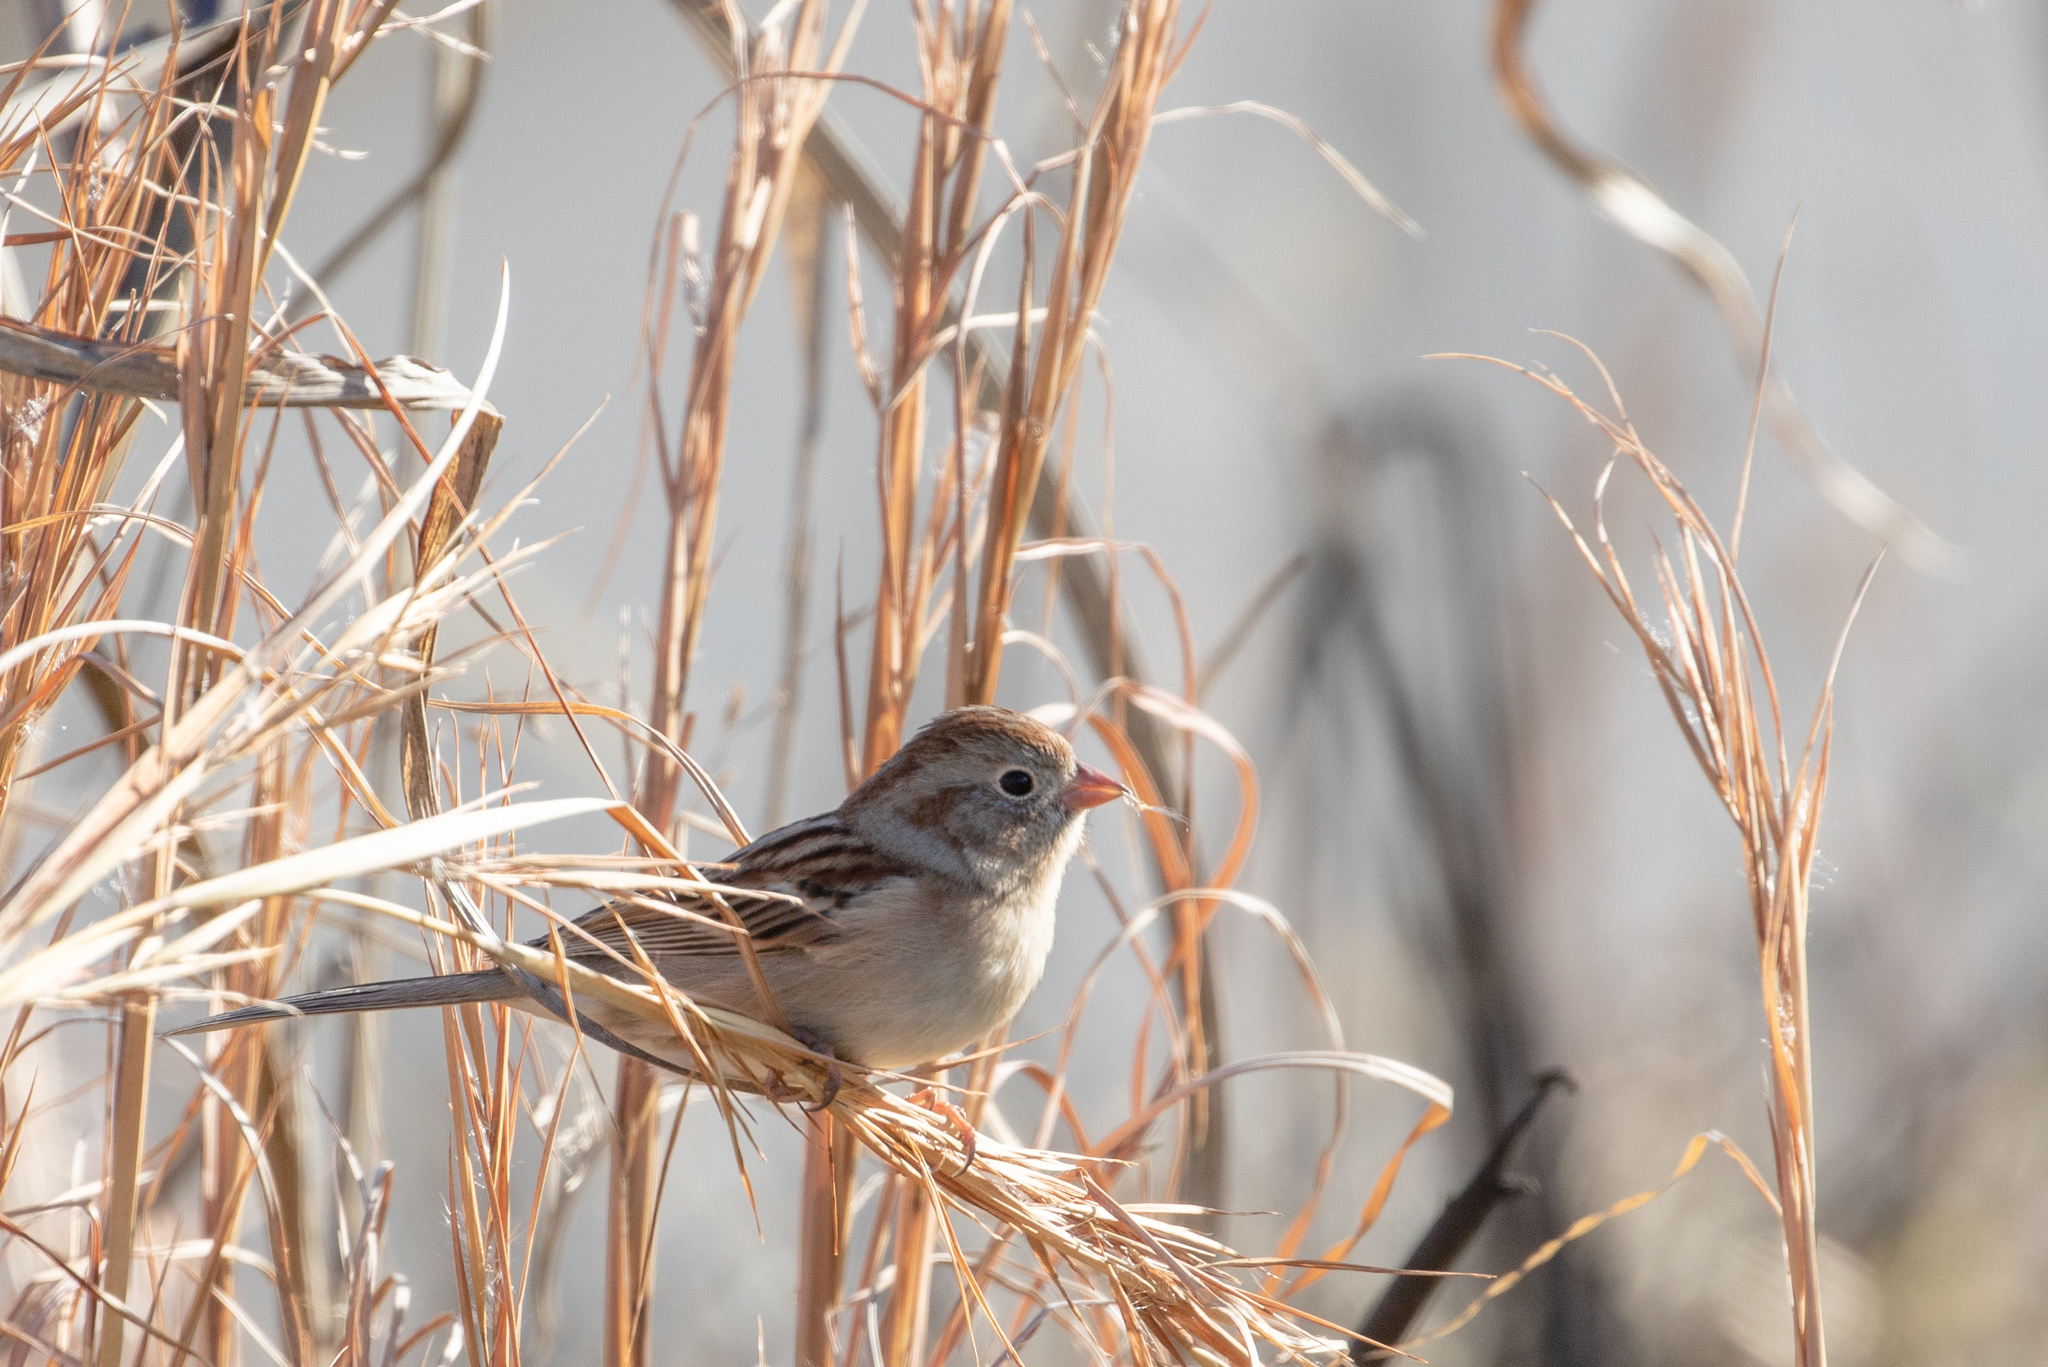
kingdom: Animalia
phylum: Chordata
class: Aves
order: Passeriformes
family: Passerellidae
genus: Spizella
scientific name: Spizella pusilla
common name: Field sparrow
